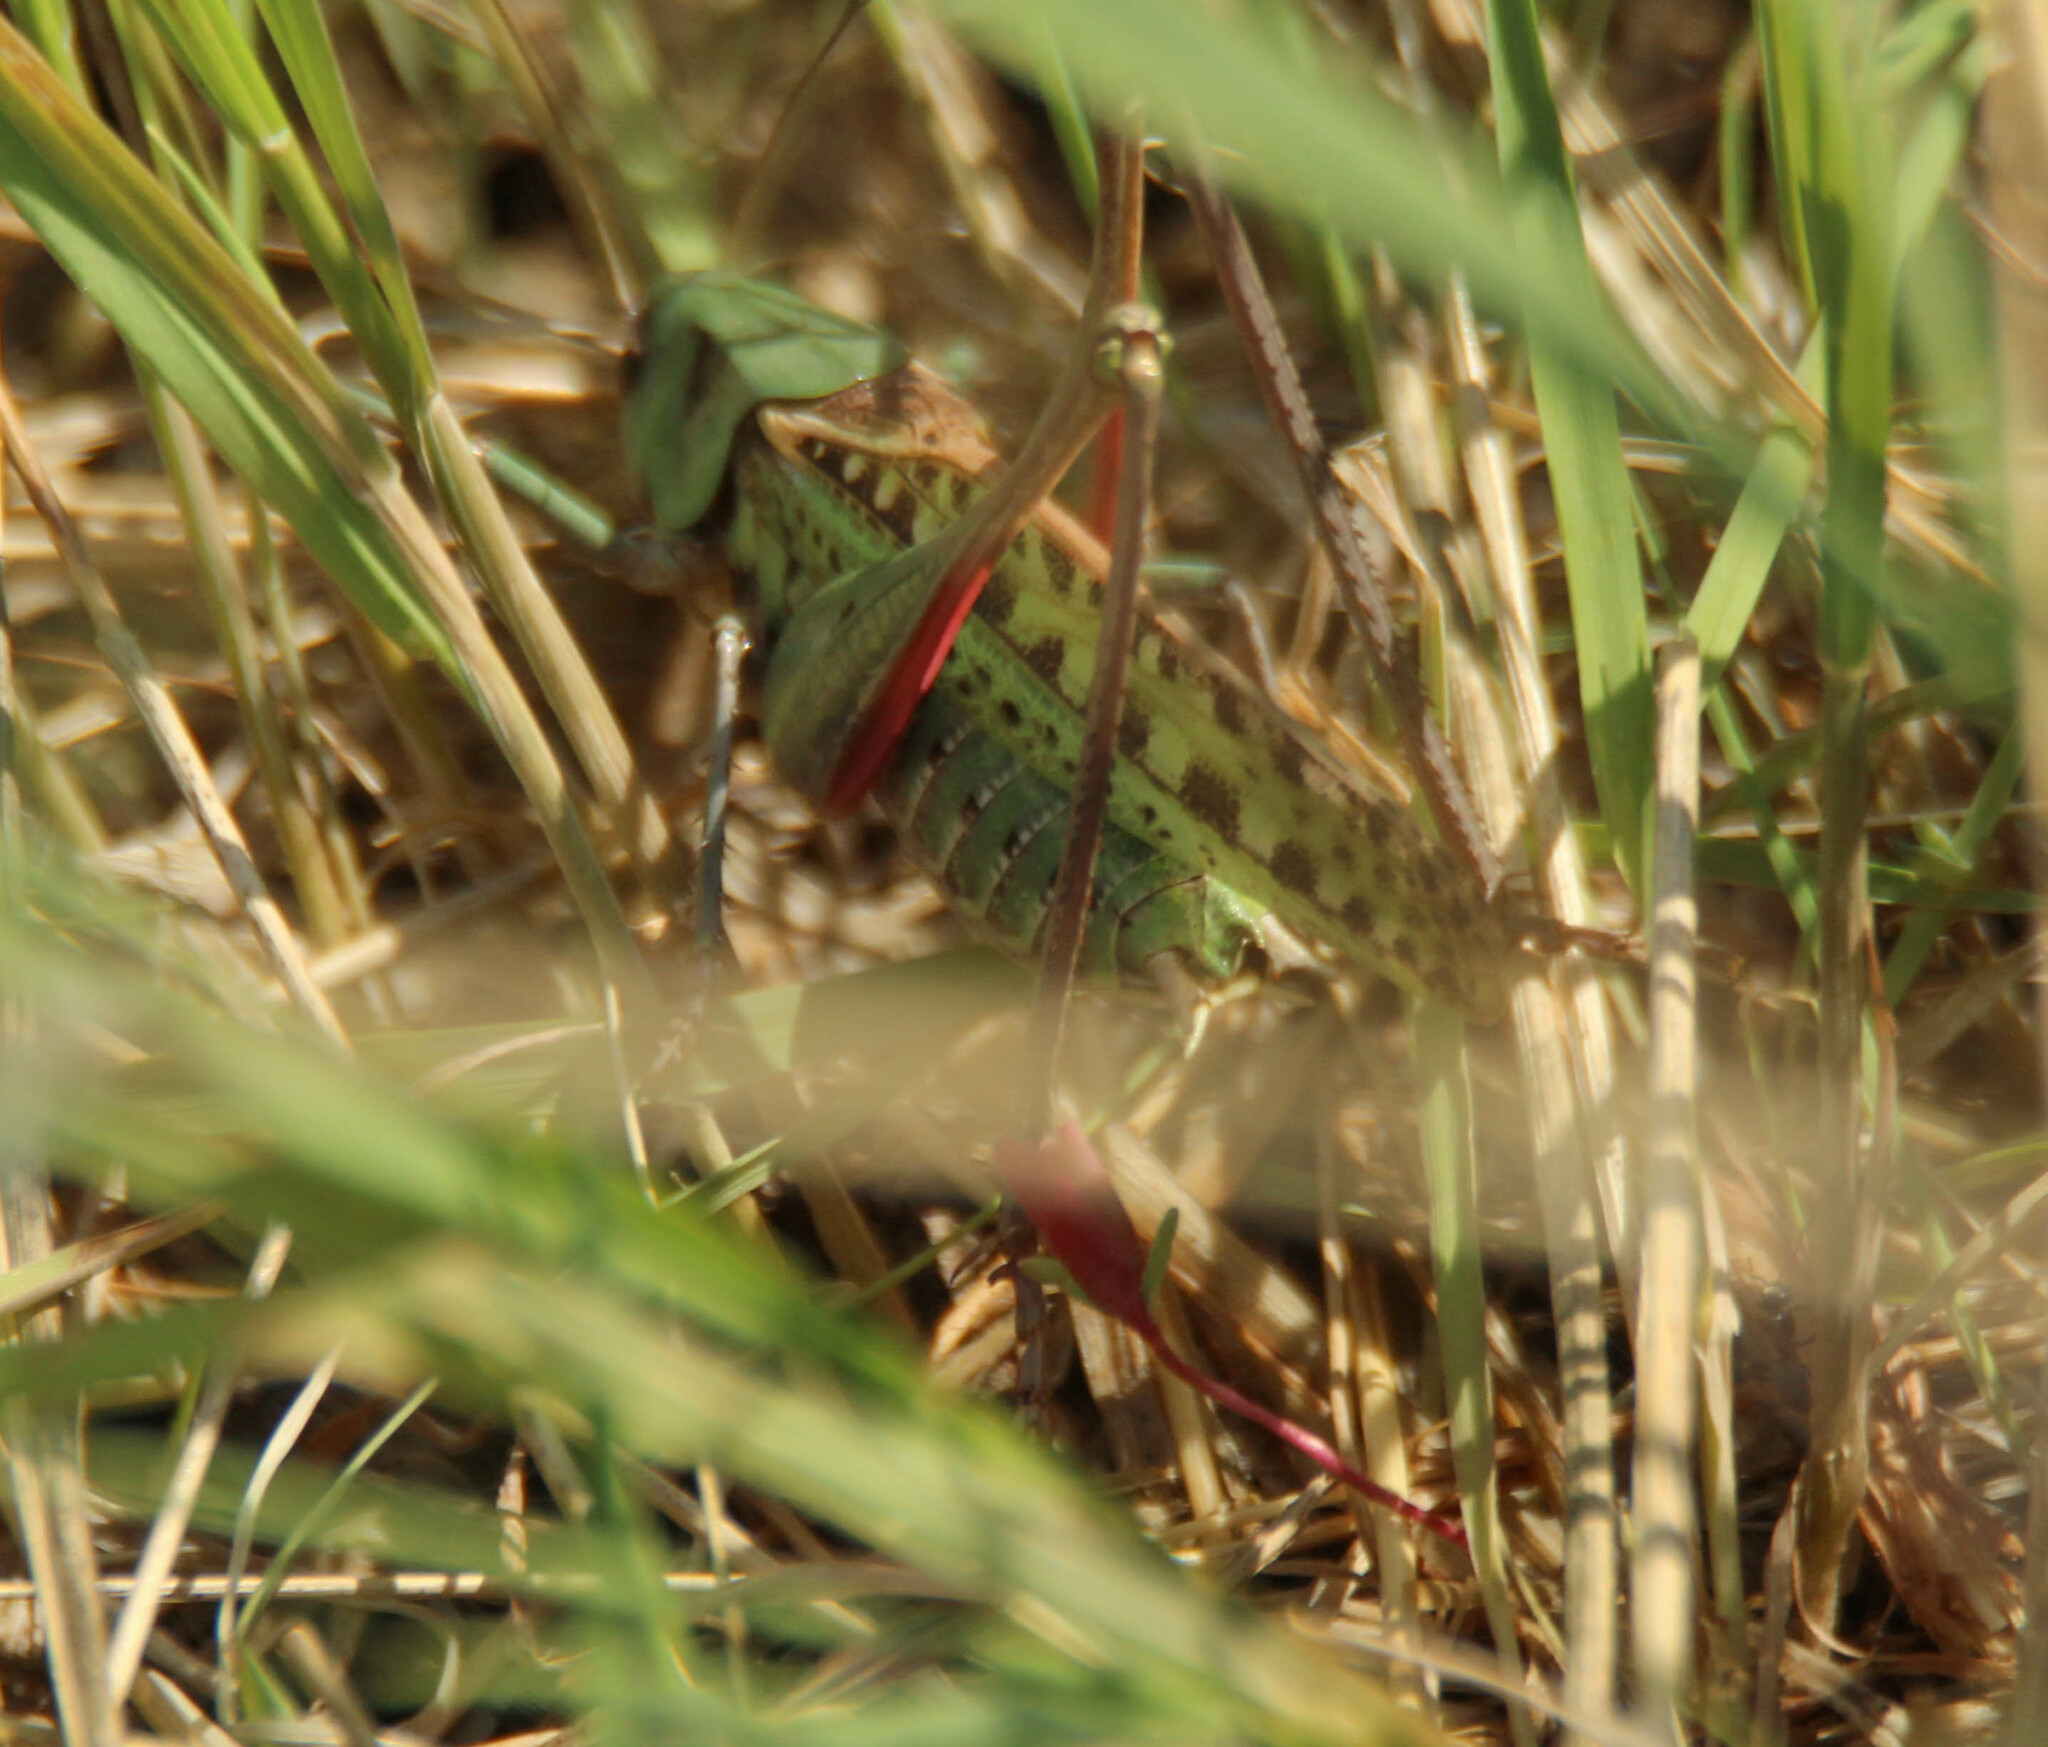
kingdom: Animalia
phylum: Arthropoda
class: Insecta
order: Orthoptera
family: Tettigoniidae
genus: Decticus
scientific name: Decticus verrucivorus
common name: Wart-biter
